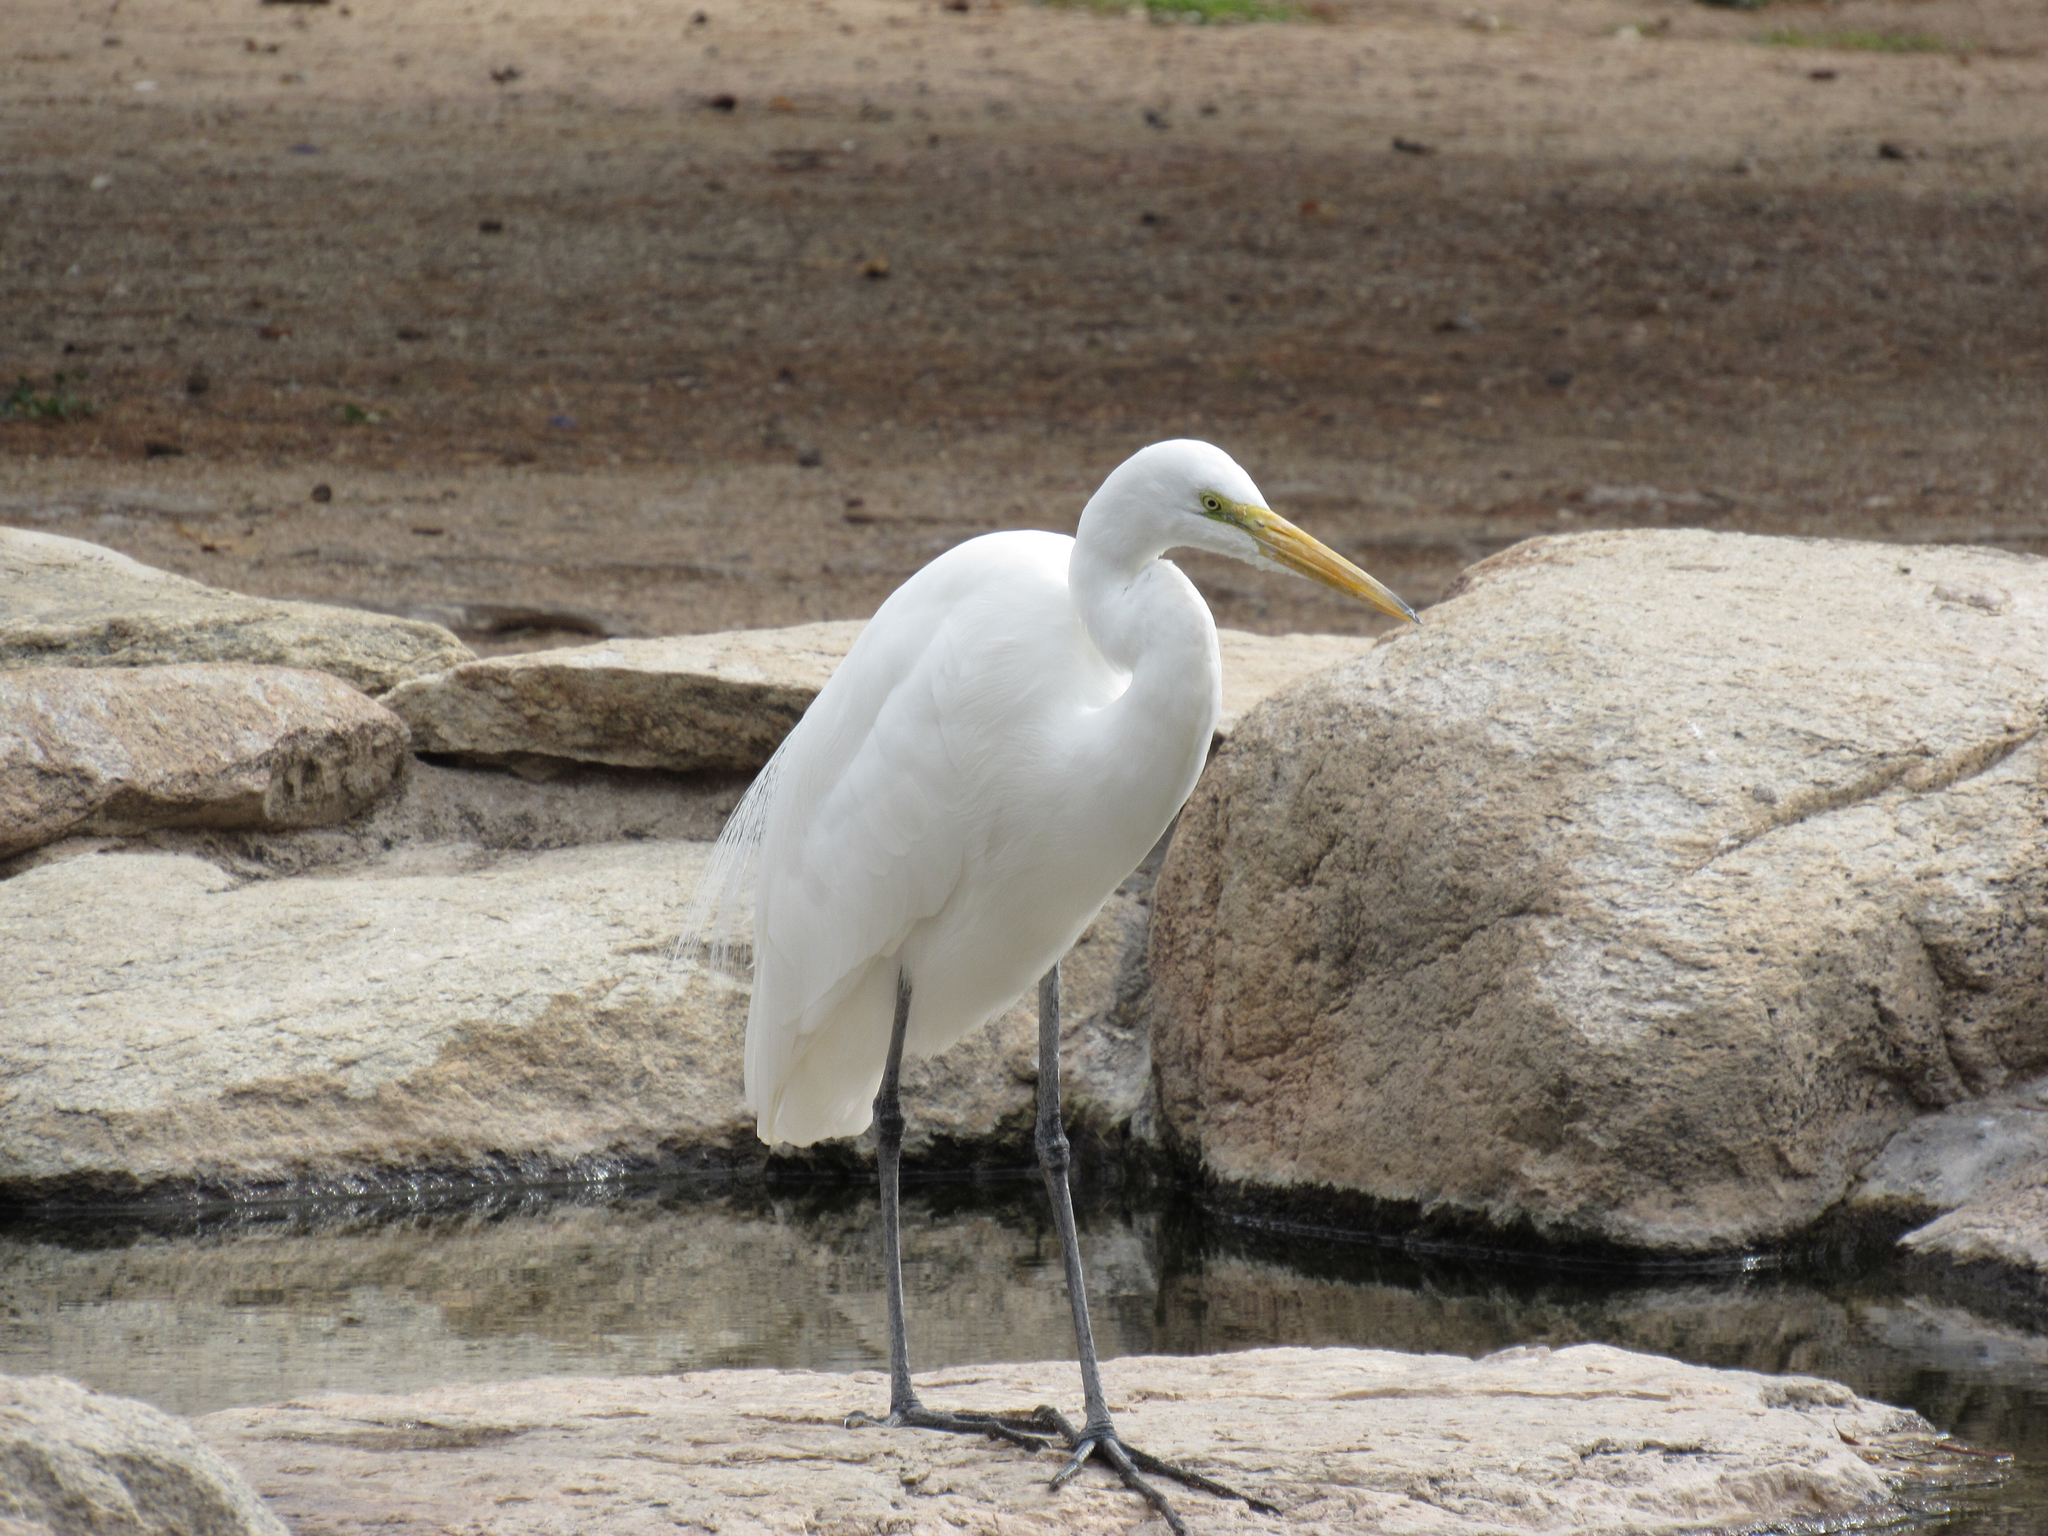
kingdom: Animalia
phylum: Chordata
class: Aves
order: Pelecaniformes
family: Ardeidae
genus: Ardea
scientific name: Ardea alba
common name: Great egret
